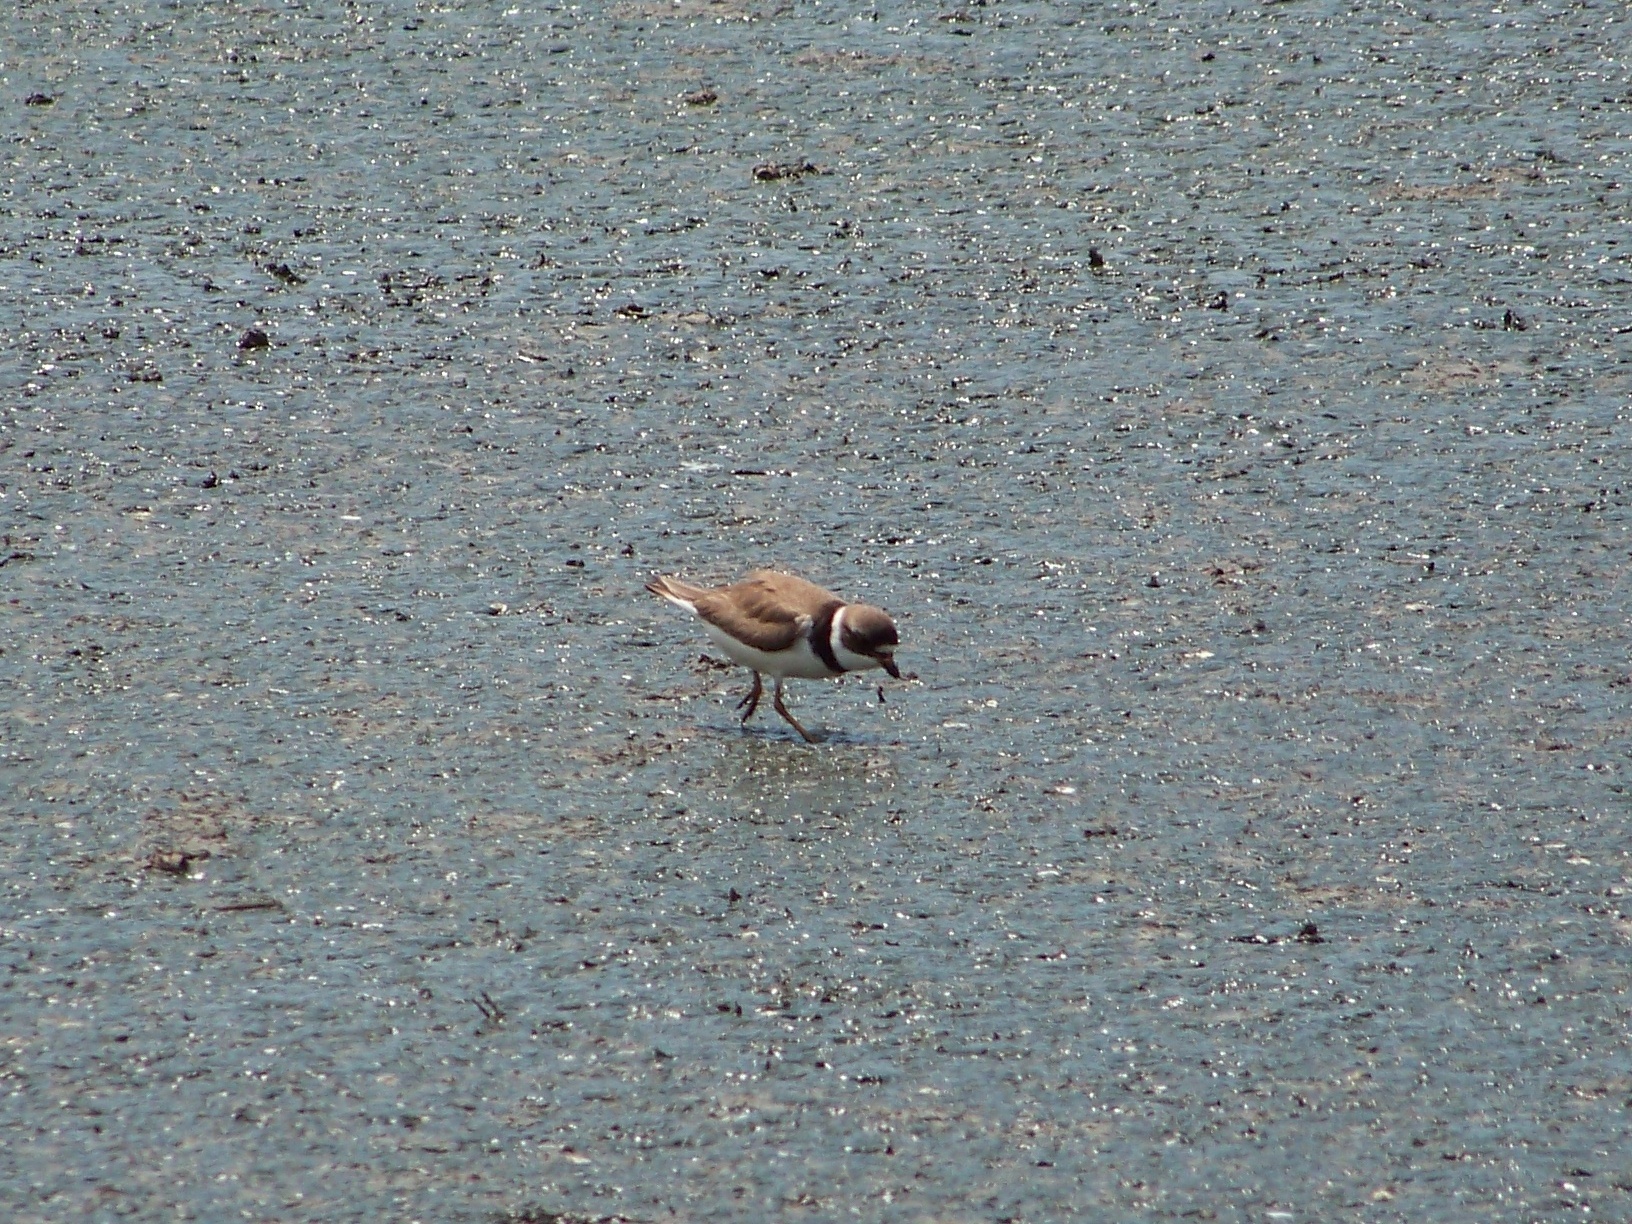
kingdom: Animalia
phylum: Chordata
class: Aves
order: Charadriiformes
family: Charadriidae
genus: Charadrius
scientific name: Charadrius semipalmatus
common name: Semipalmated plover
